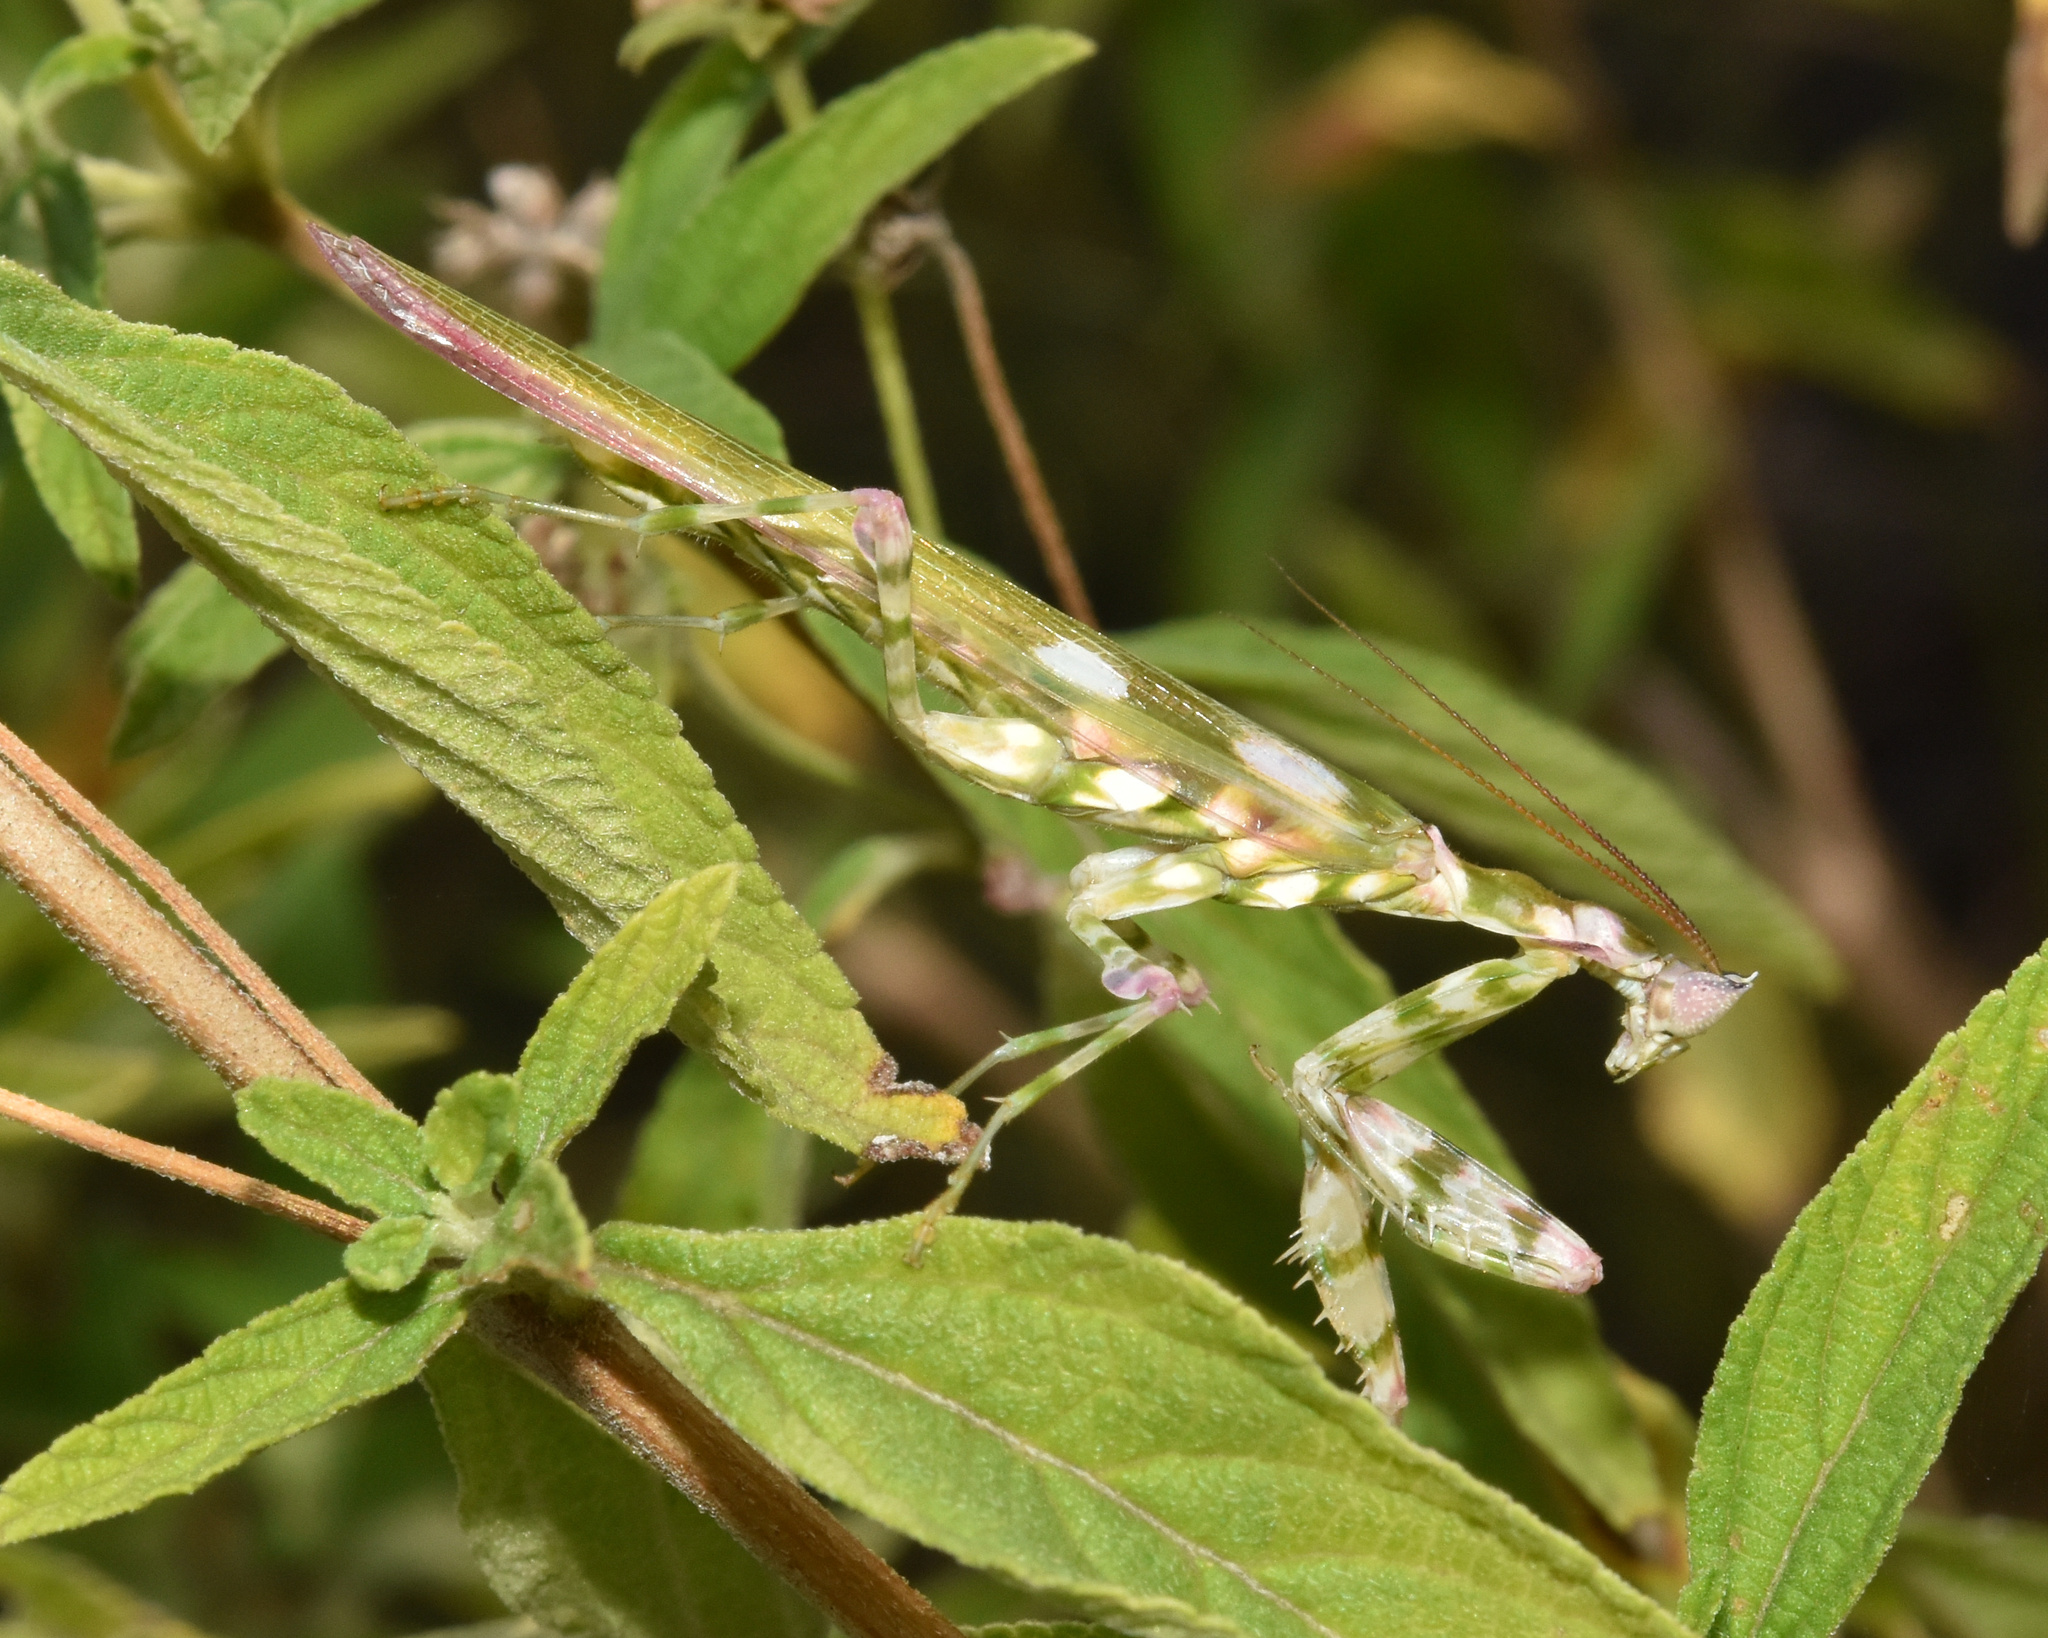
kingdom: Animalia
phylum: Arthropoda
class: Insecta
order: Mantodea
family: Galinthiadidae
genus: Harpagomantis
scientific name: Harpagomantis tricolor
